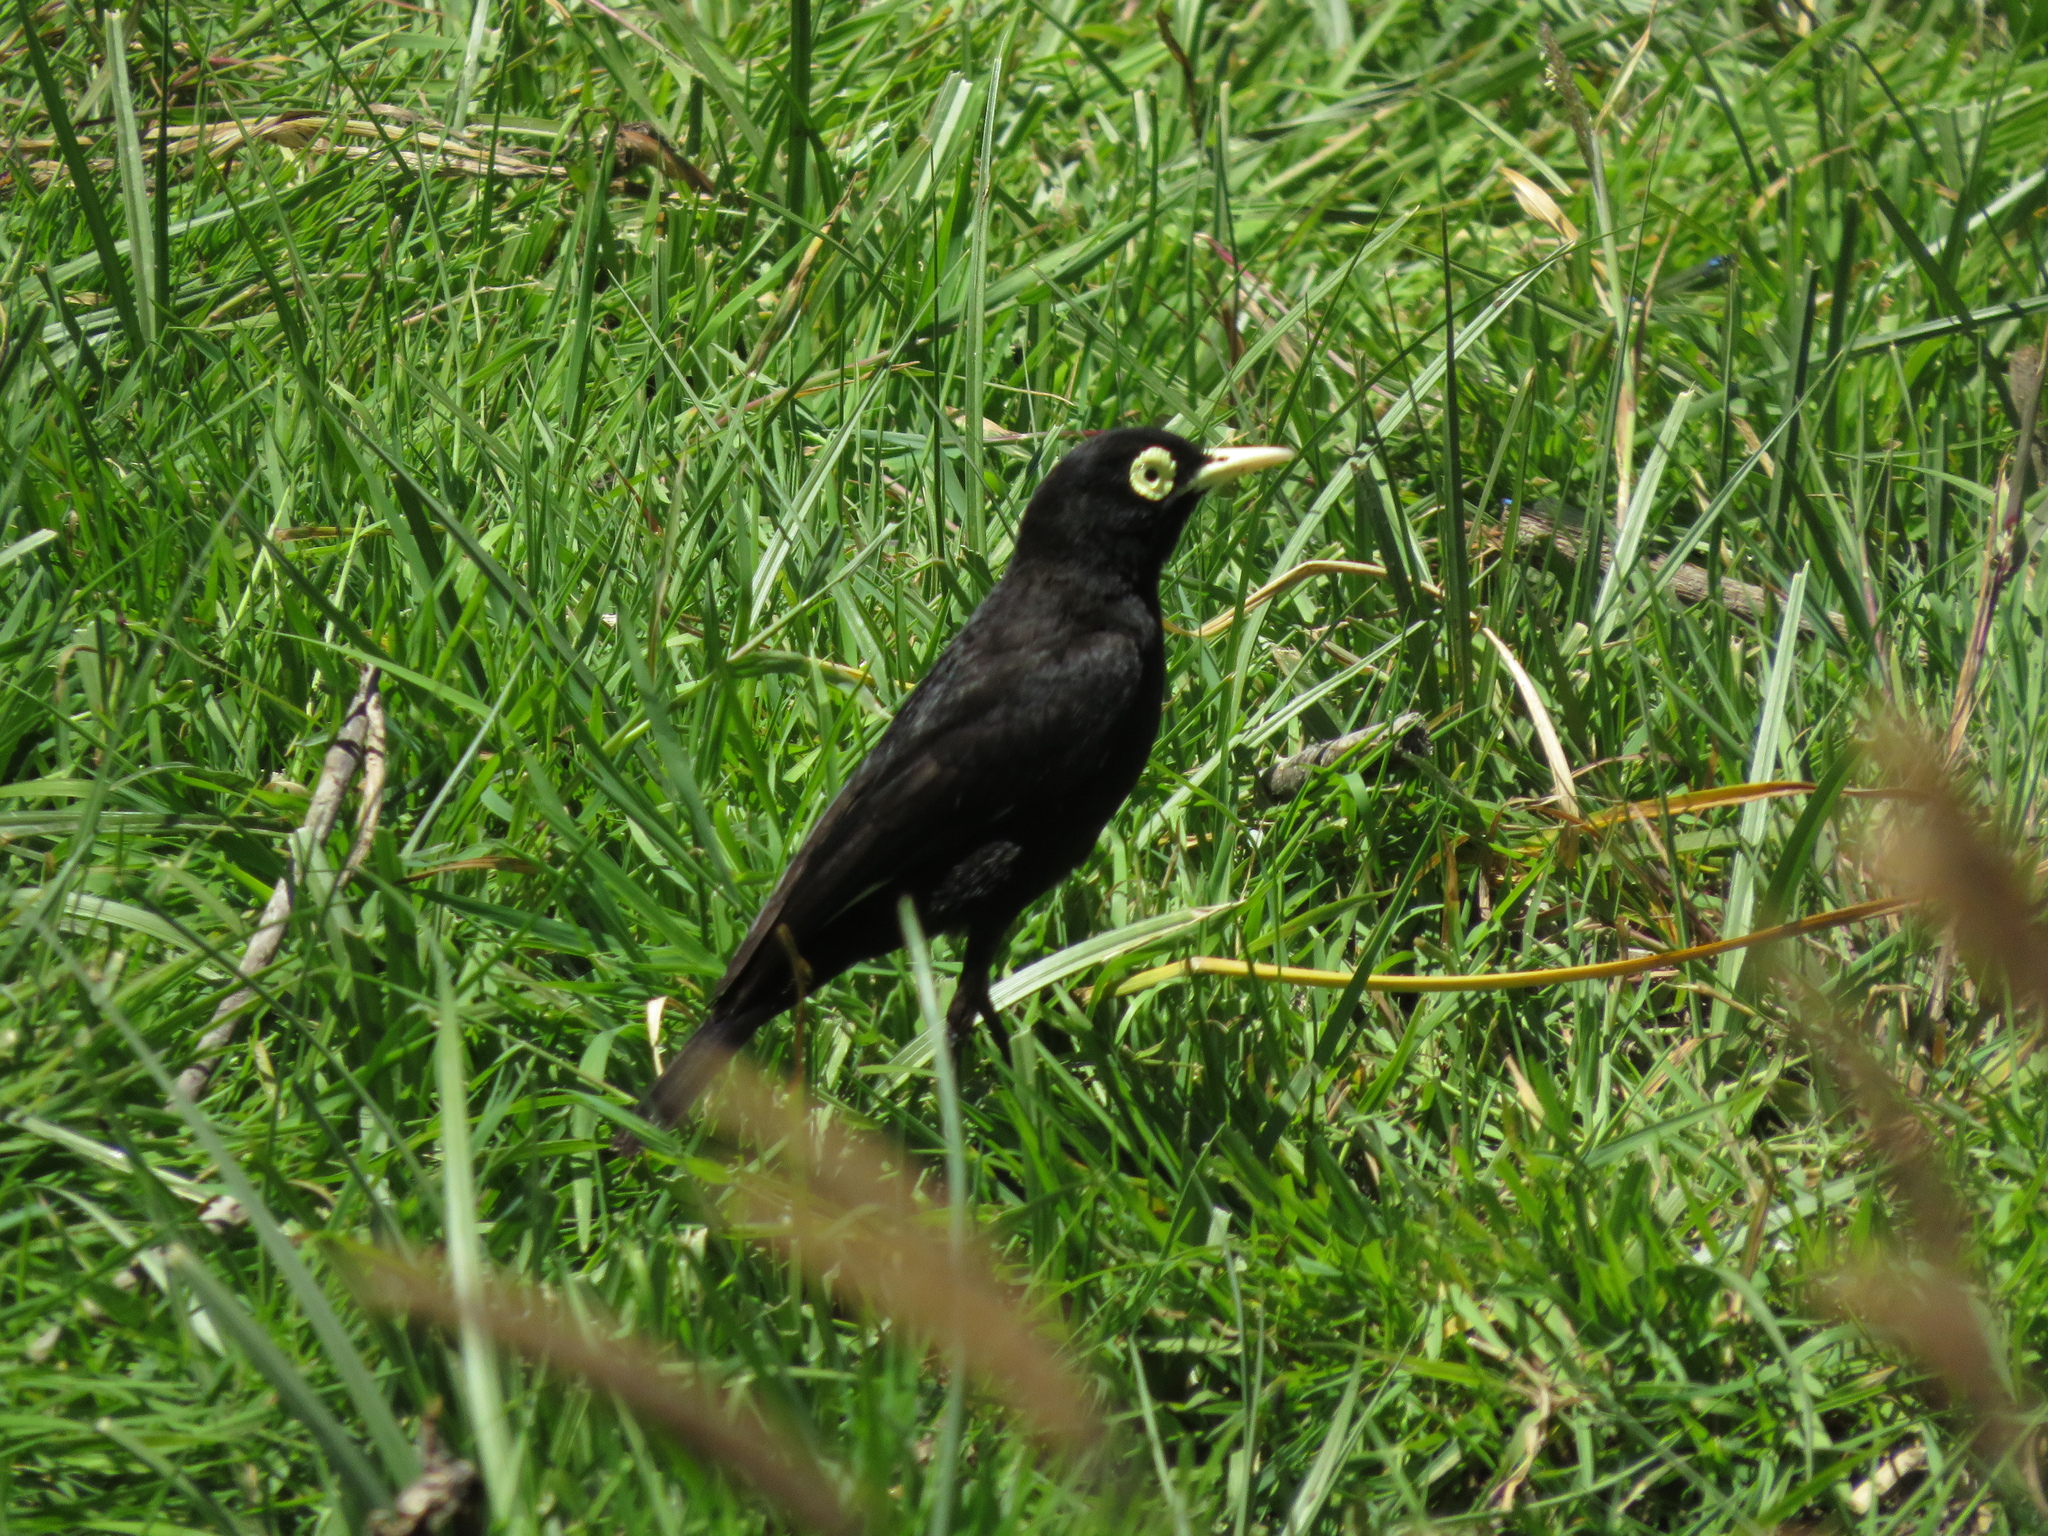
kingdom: Animalia
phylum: Chordata
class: Aves
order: Passeriformes
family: Tyrannidae
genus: Hymenops
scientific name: Hymenops perspicillatus
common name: Spectacled tyrant
